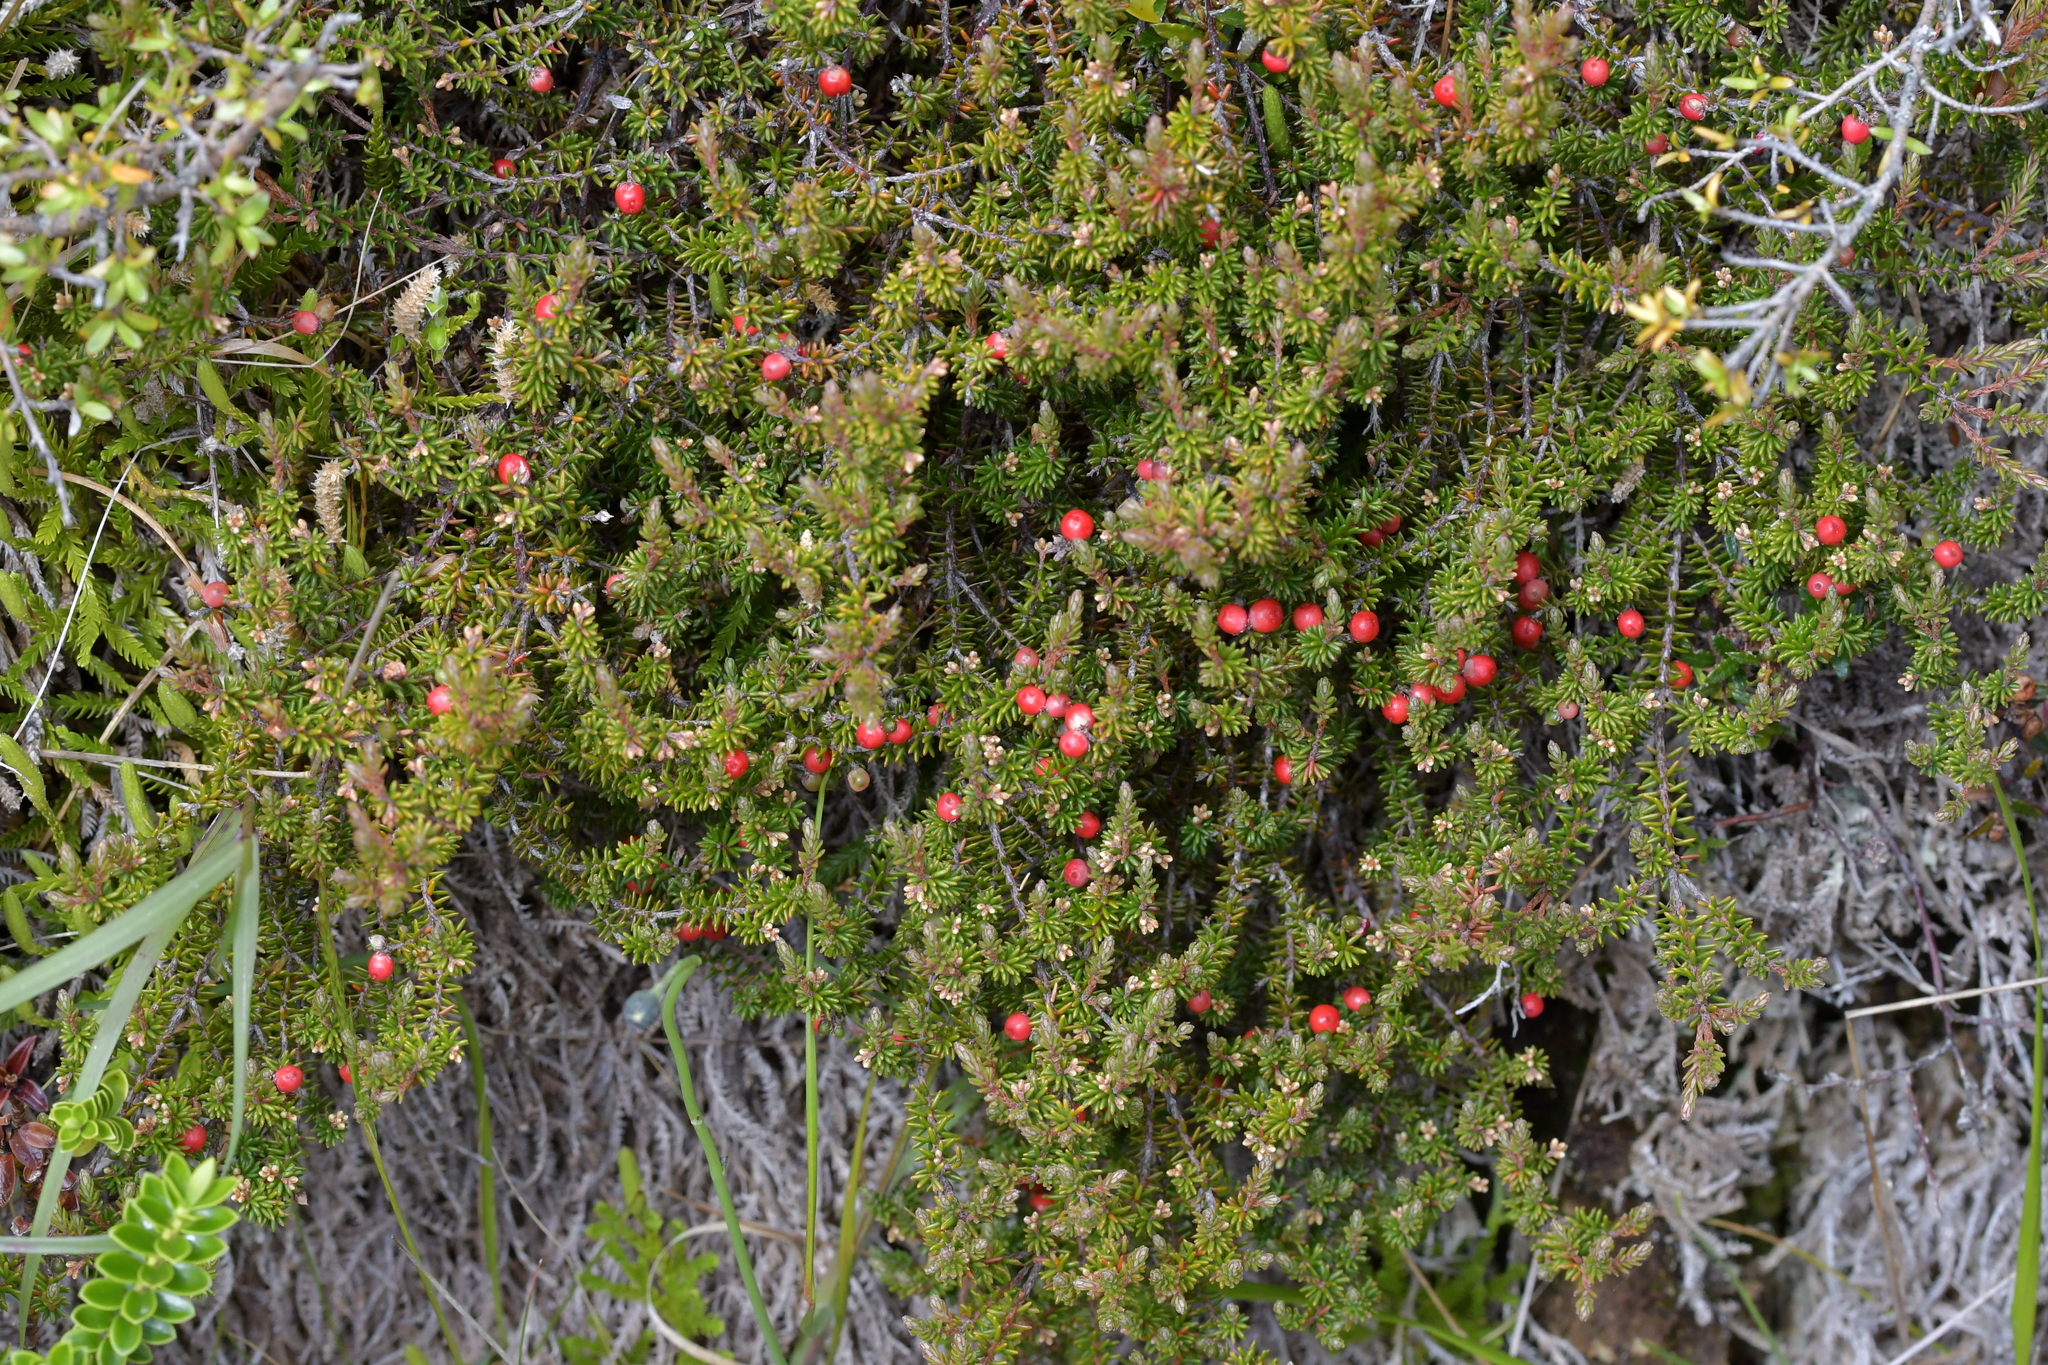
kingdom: Plantae
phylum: Tracheophyta
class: Magnoliopsida
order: Ericales
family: Ericaceae
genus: Androstoma
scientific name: Androstoma empetrifolia
